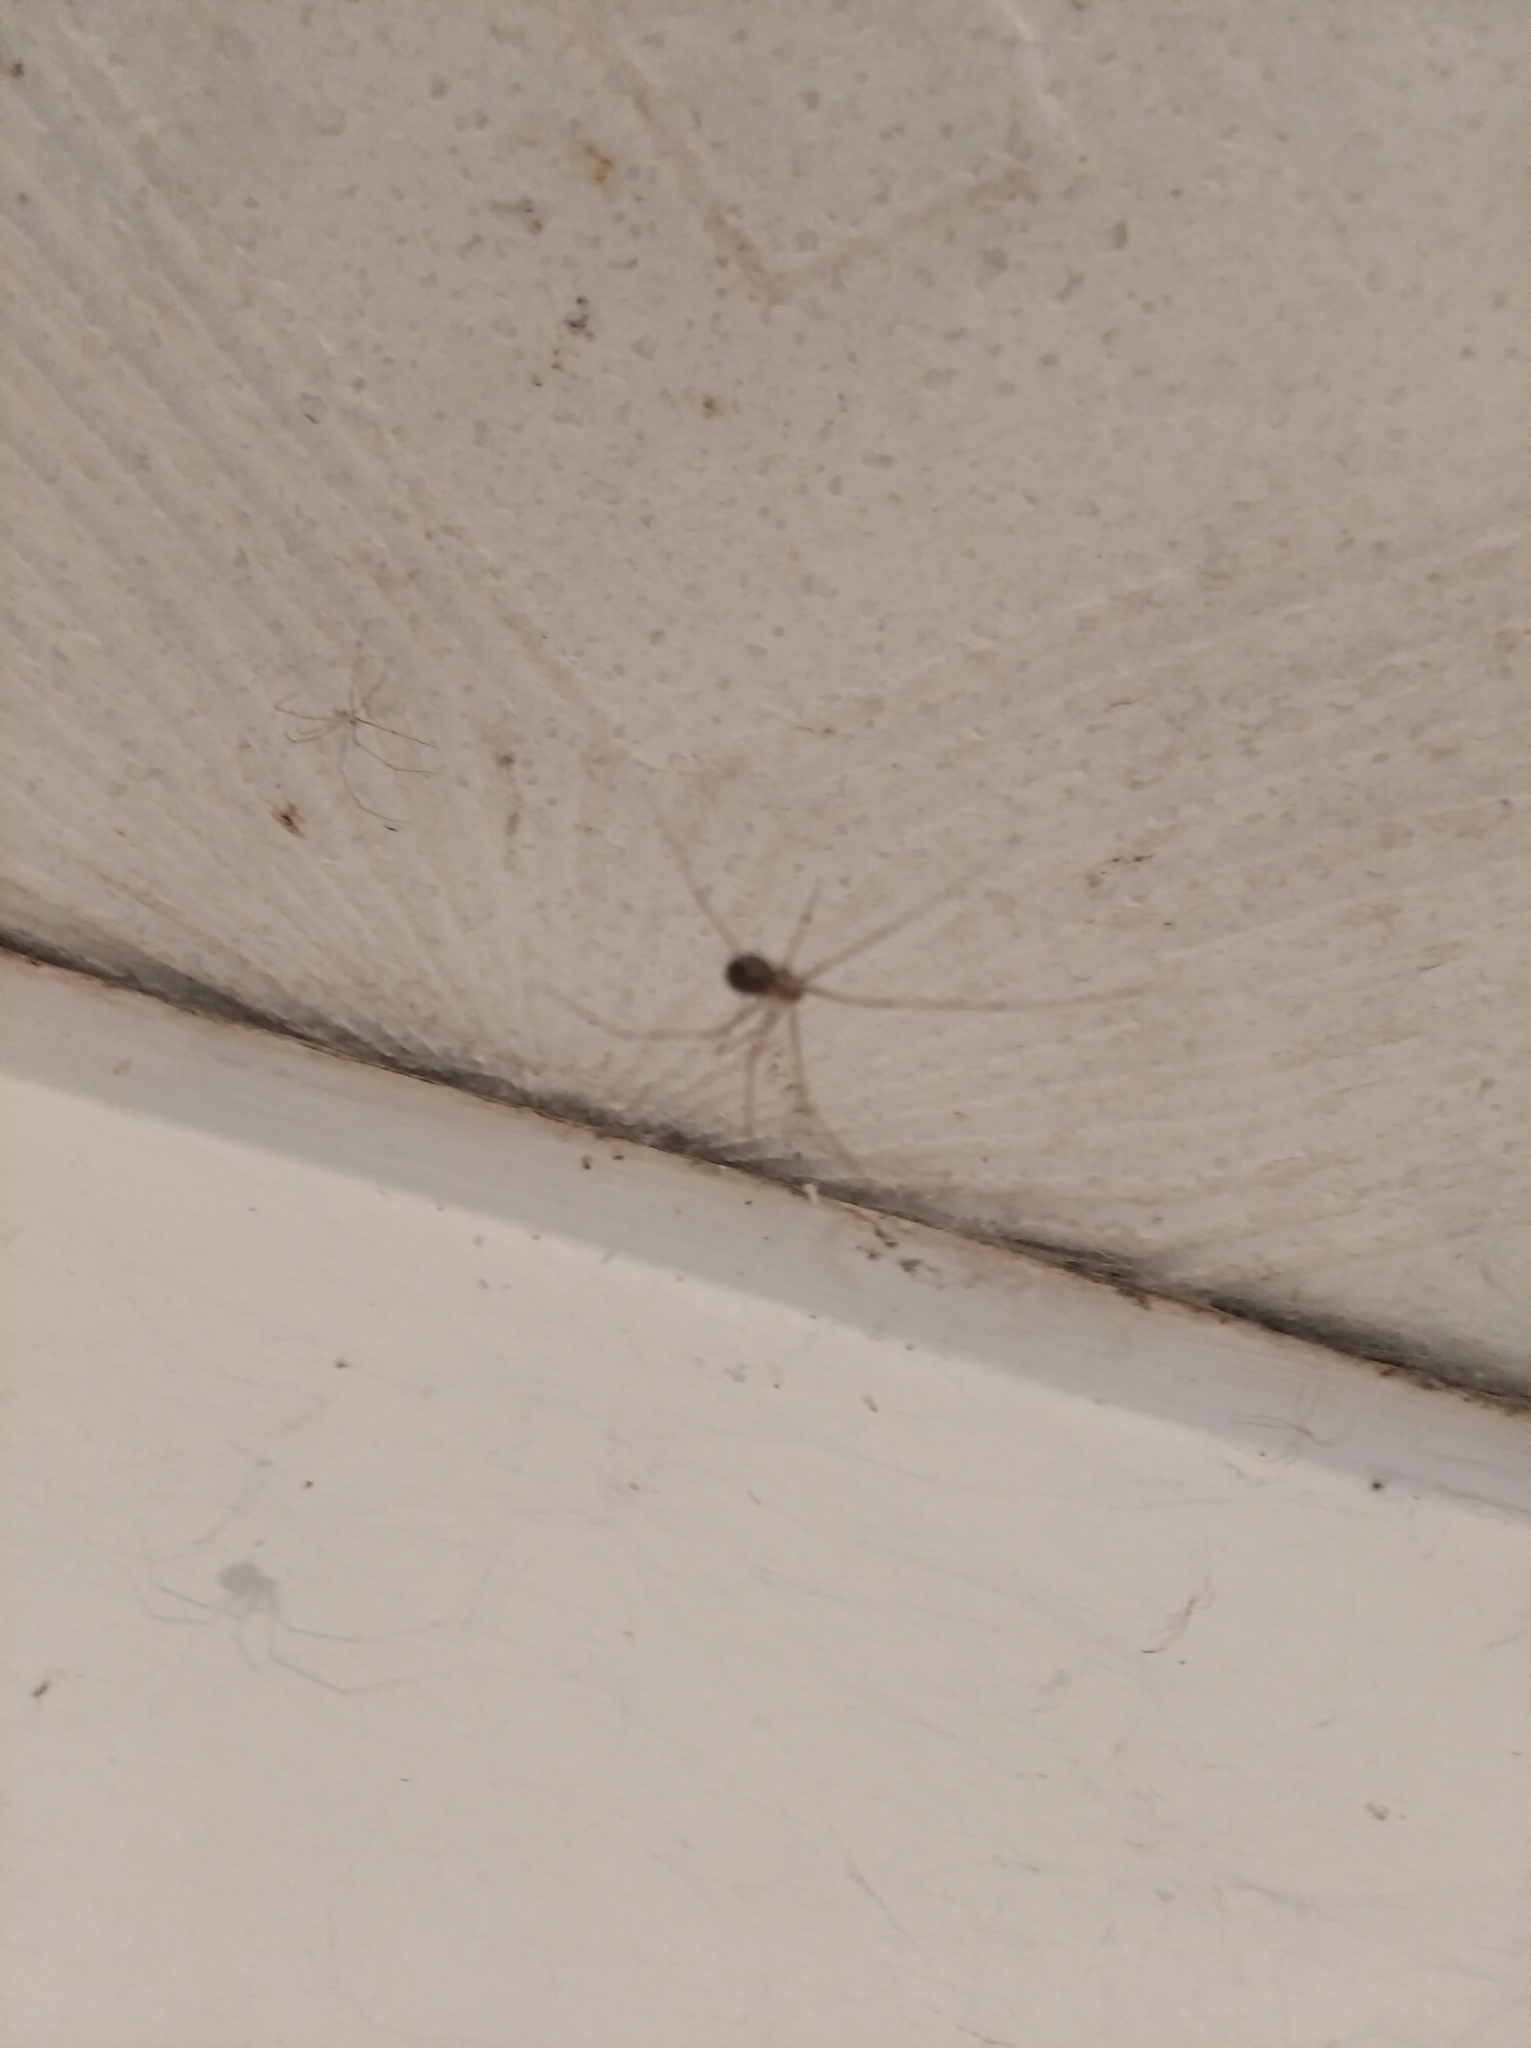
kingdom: Animalia
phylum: Arthropoda
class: Arachnida
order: Araneae
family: Pholcidae
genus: Pholcus
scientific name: Pholcus phalangioides
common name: Longbodied cellar spider
